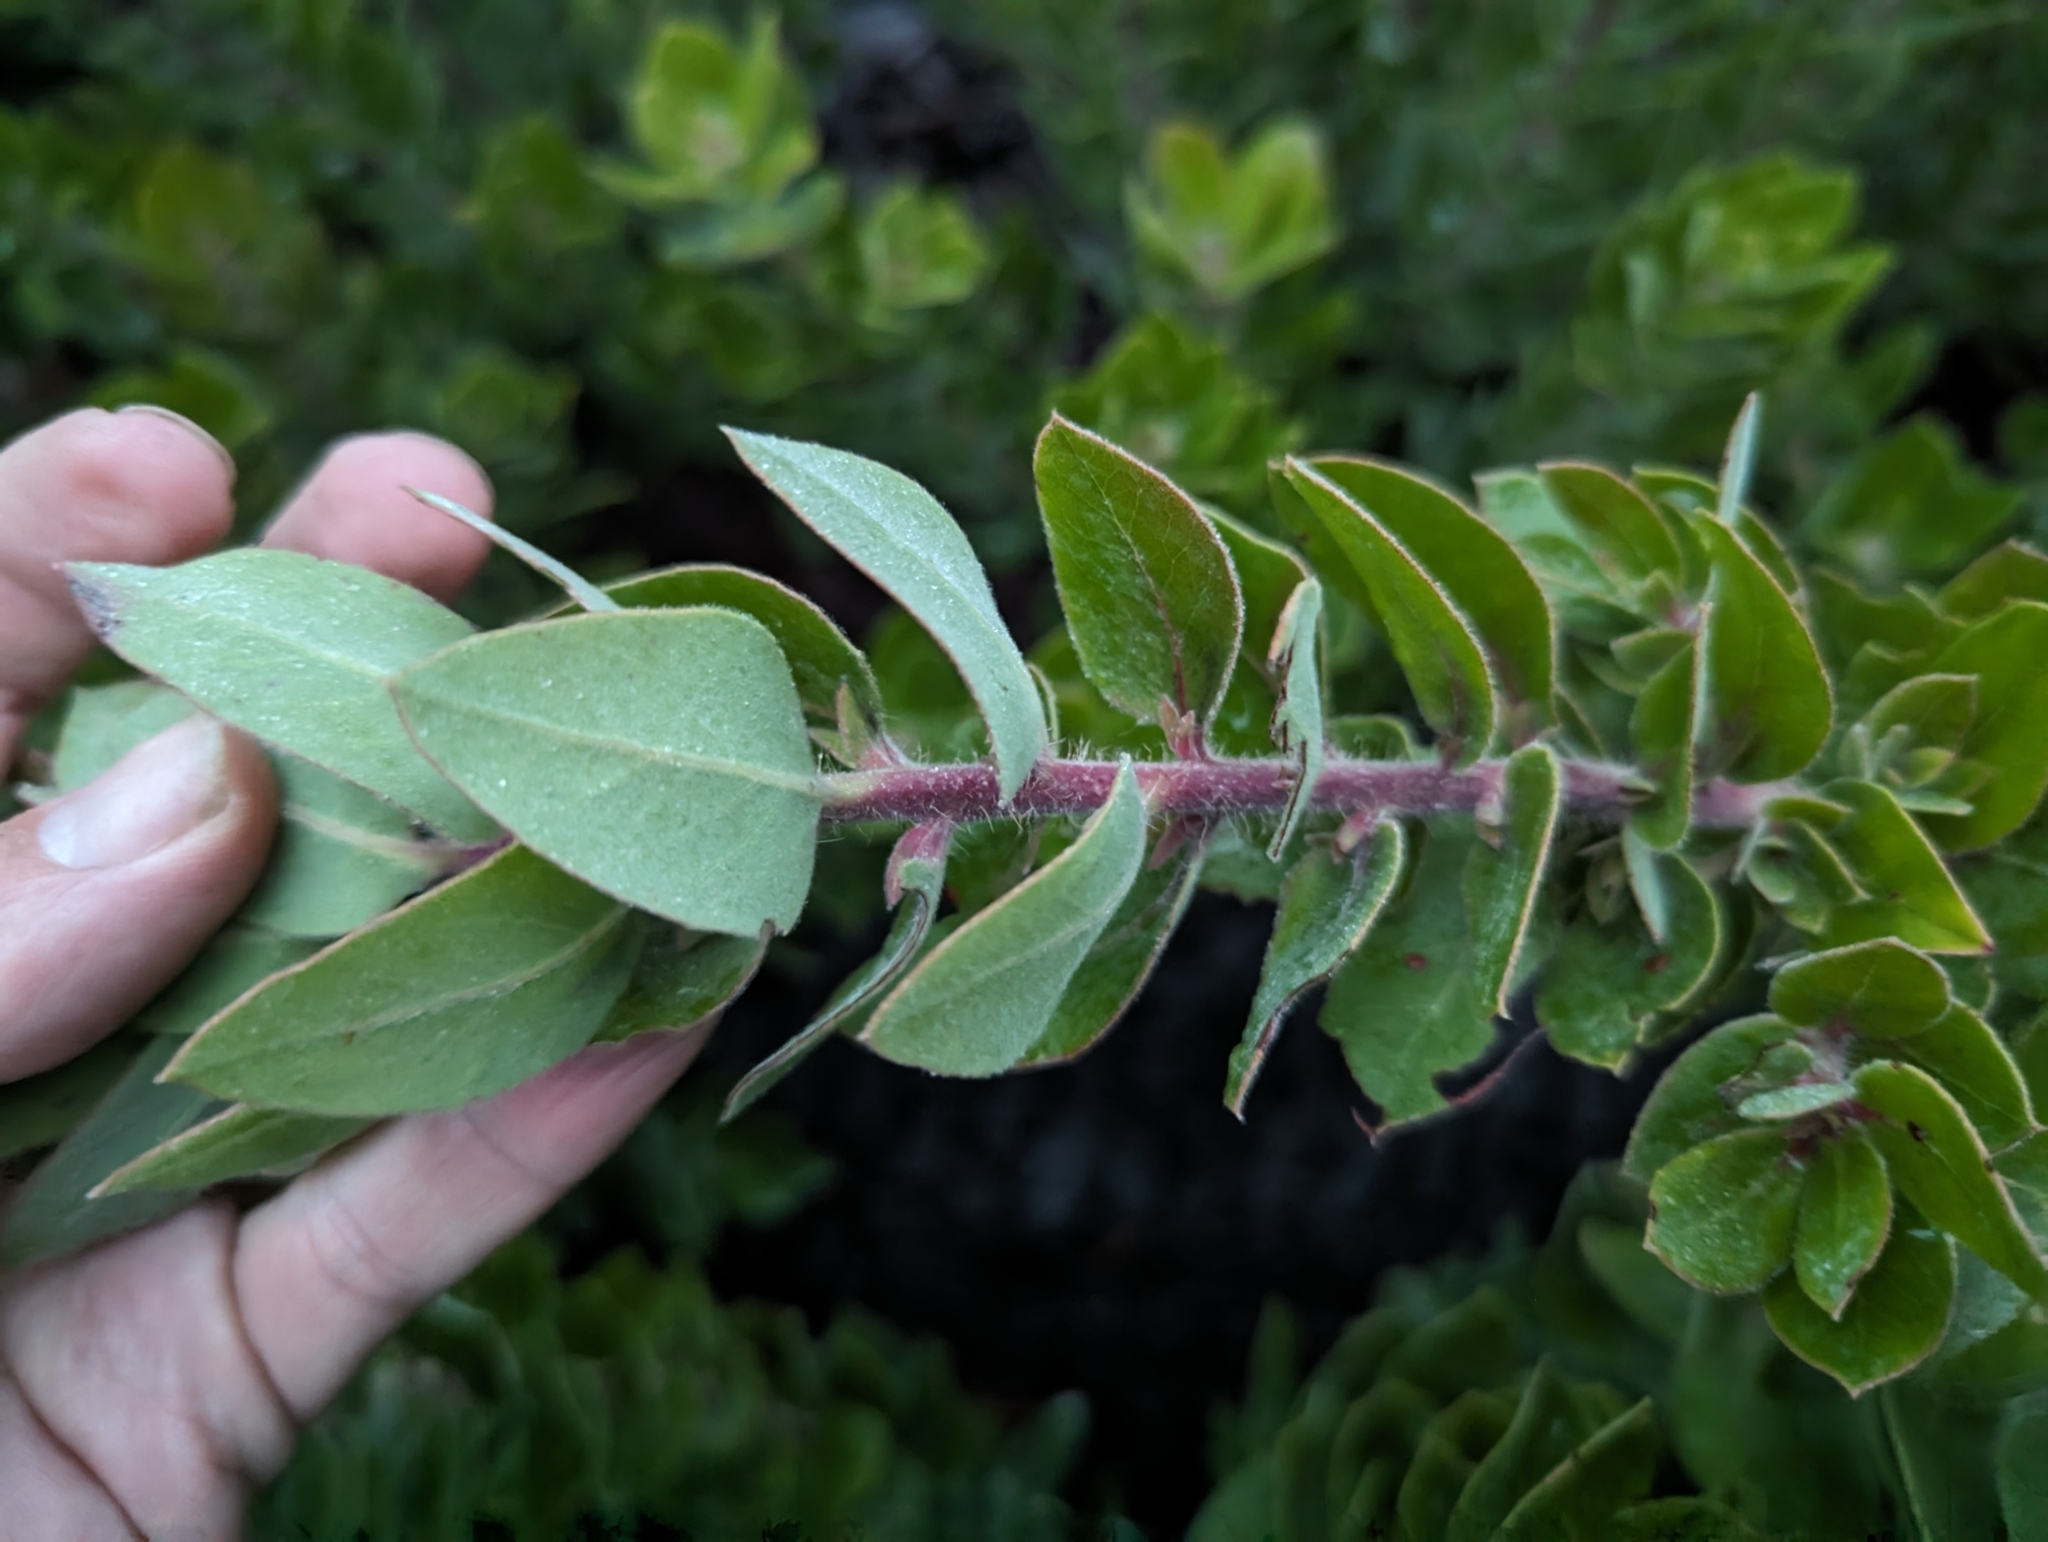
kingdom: Plantae
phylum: Tracheophyta
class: Magnoliopsida
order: Ericales
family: Ericaceae
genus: Arctostaphylos
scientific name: Arctostaphylos crustacea
